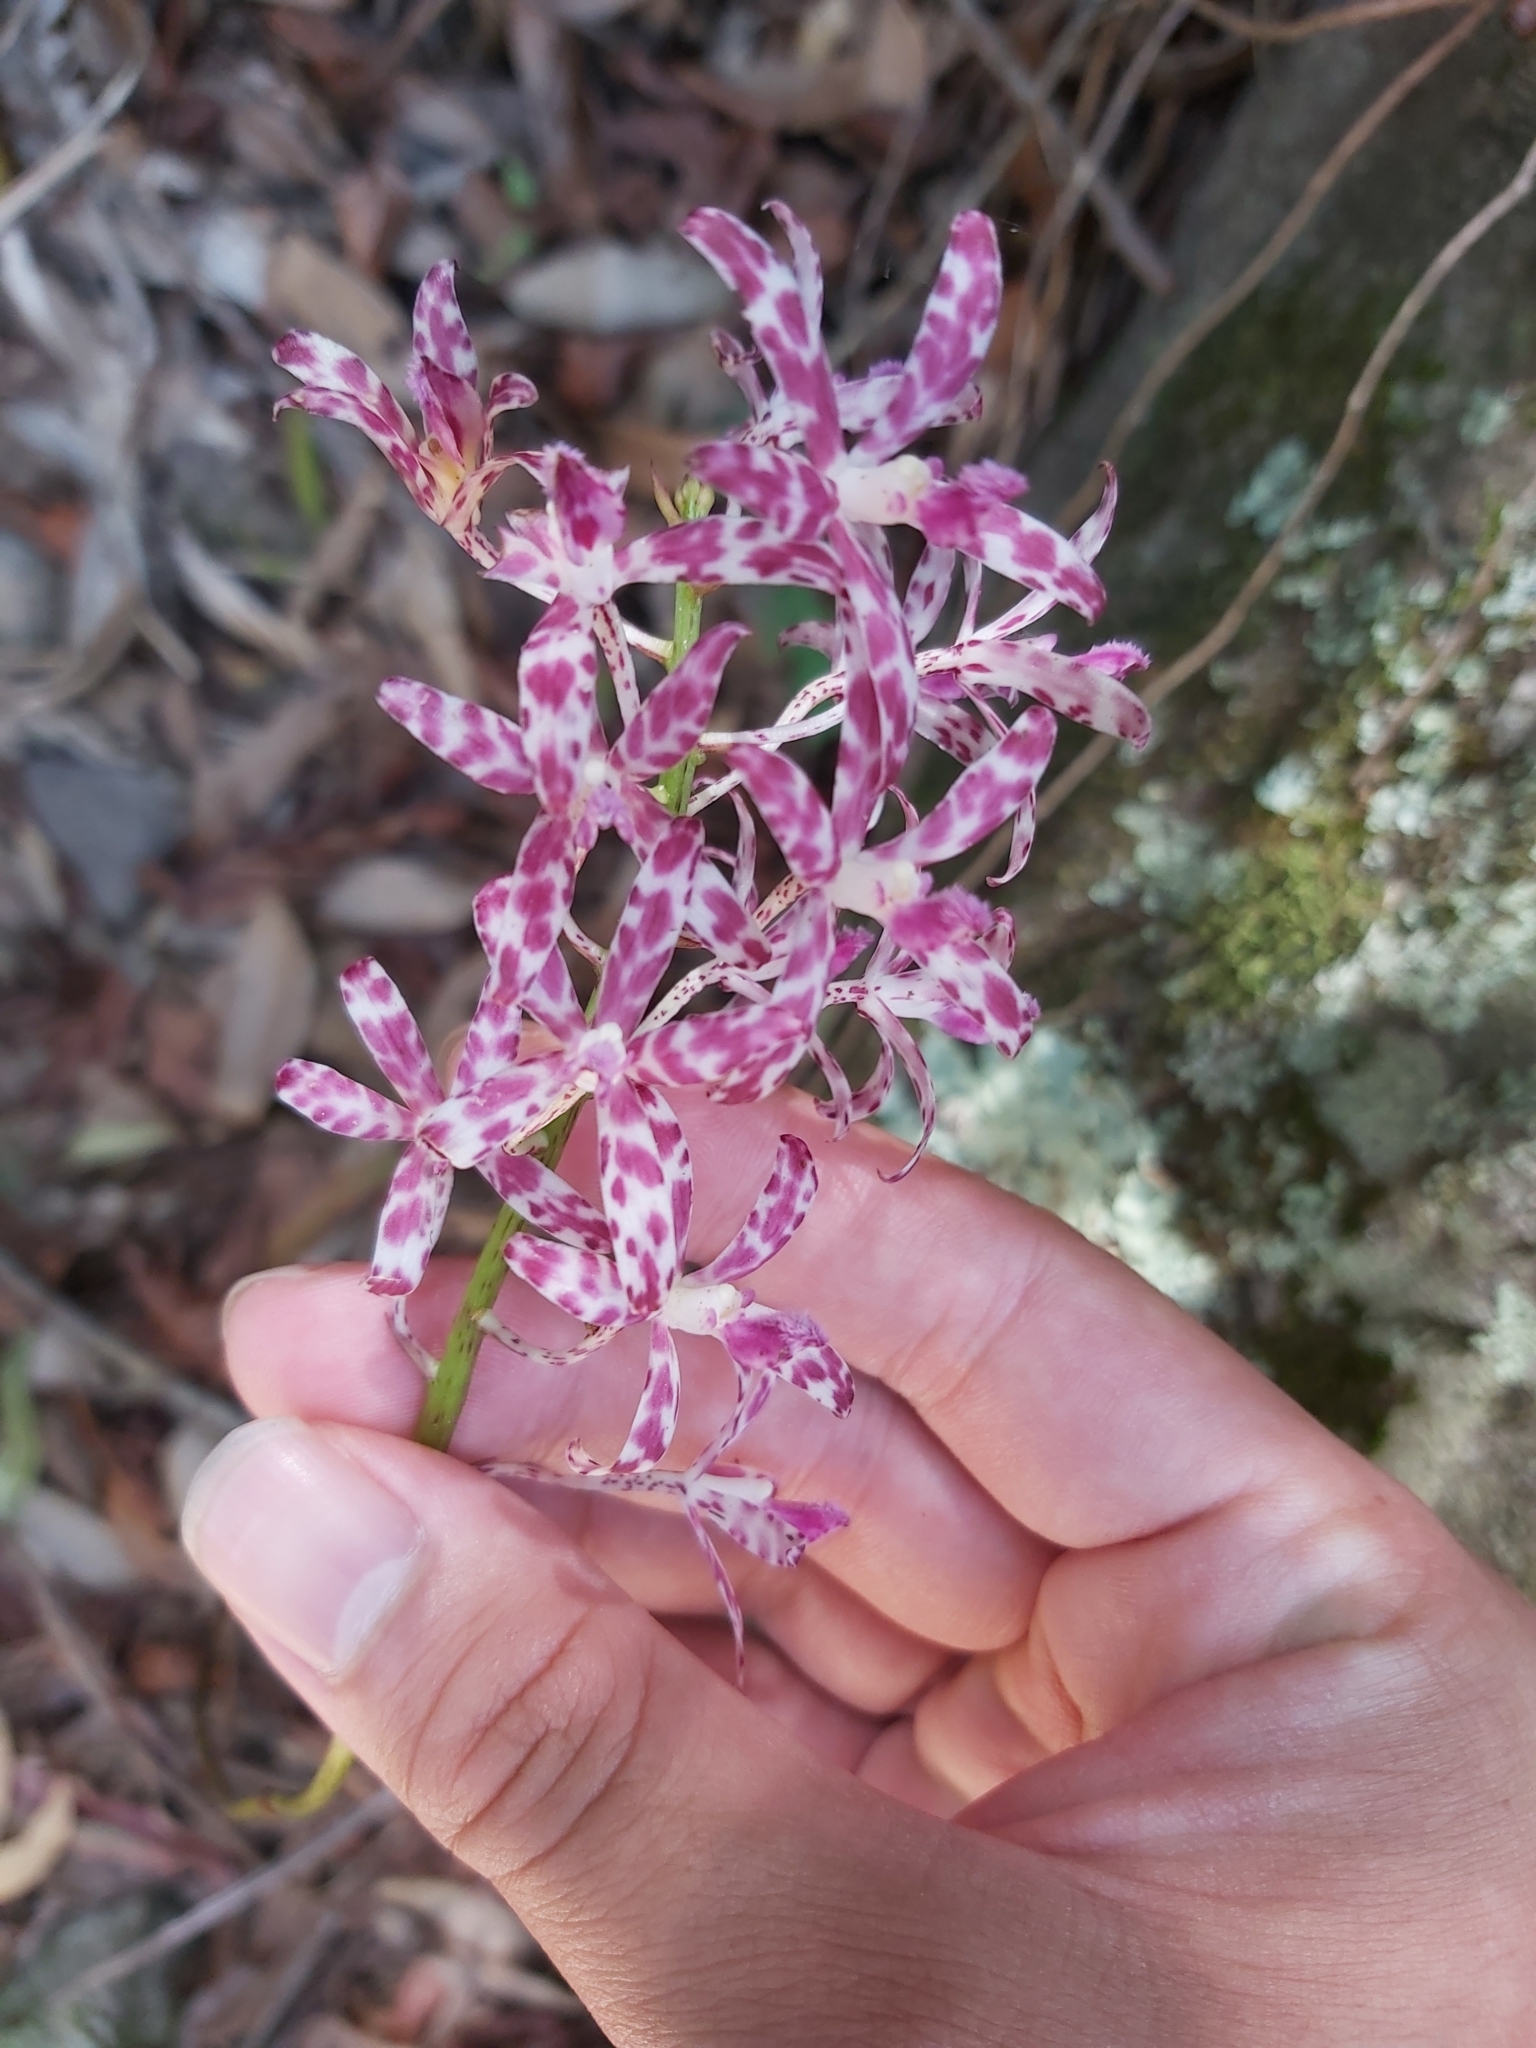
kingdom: Plantae
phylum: Tracheophyta
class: Liliopsida
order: Asparagales
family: Orchidaceae
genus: Dipodium
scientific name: Dipodium variegatum
